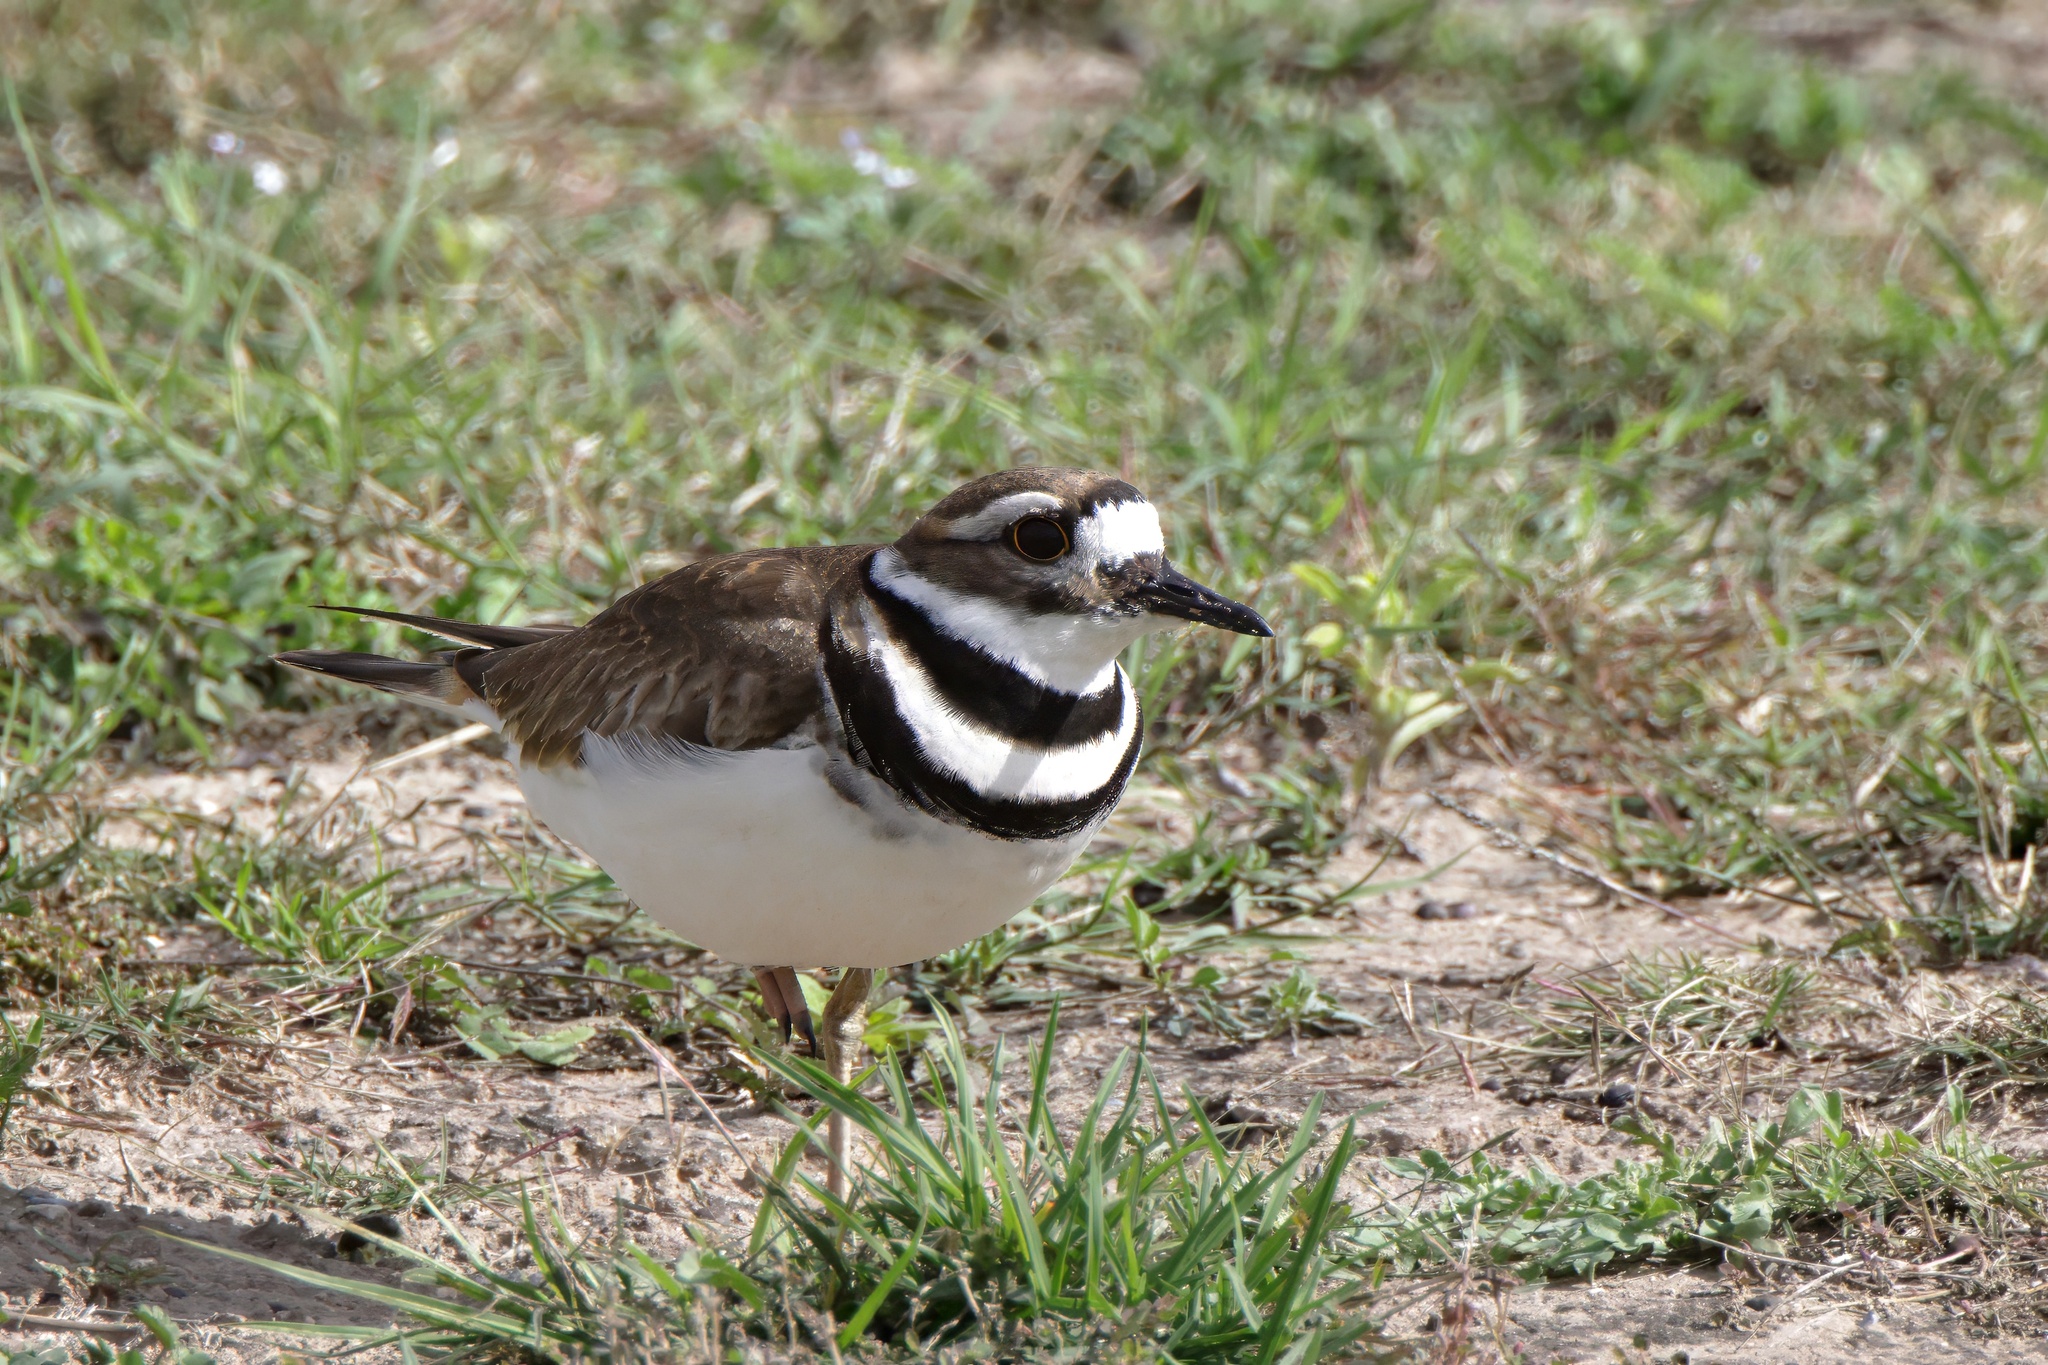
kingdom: Animalia
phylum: Chordata
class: Aves
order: Charadriiformes
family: Charadriidae
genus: Charadrius
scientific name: Charadrius vociferus
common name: Killdeer
